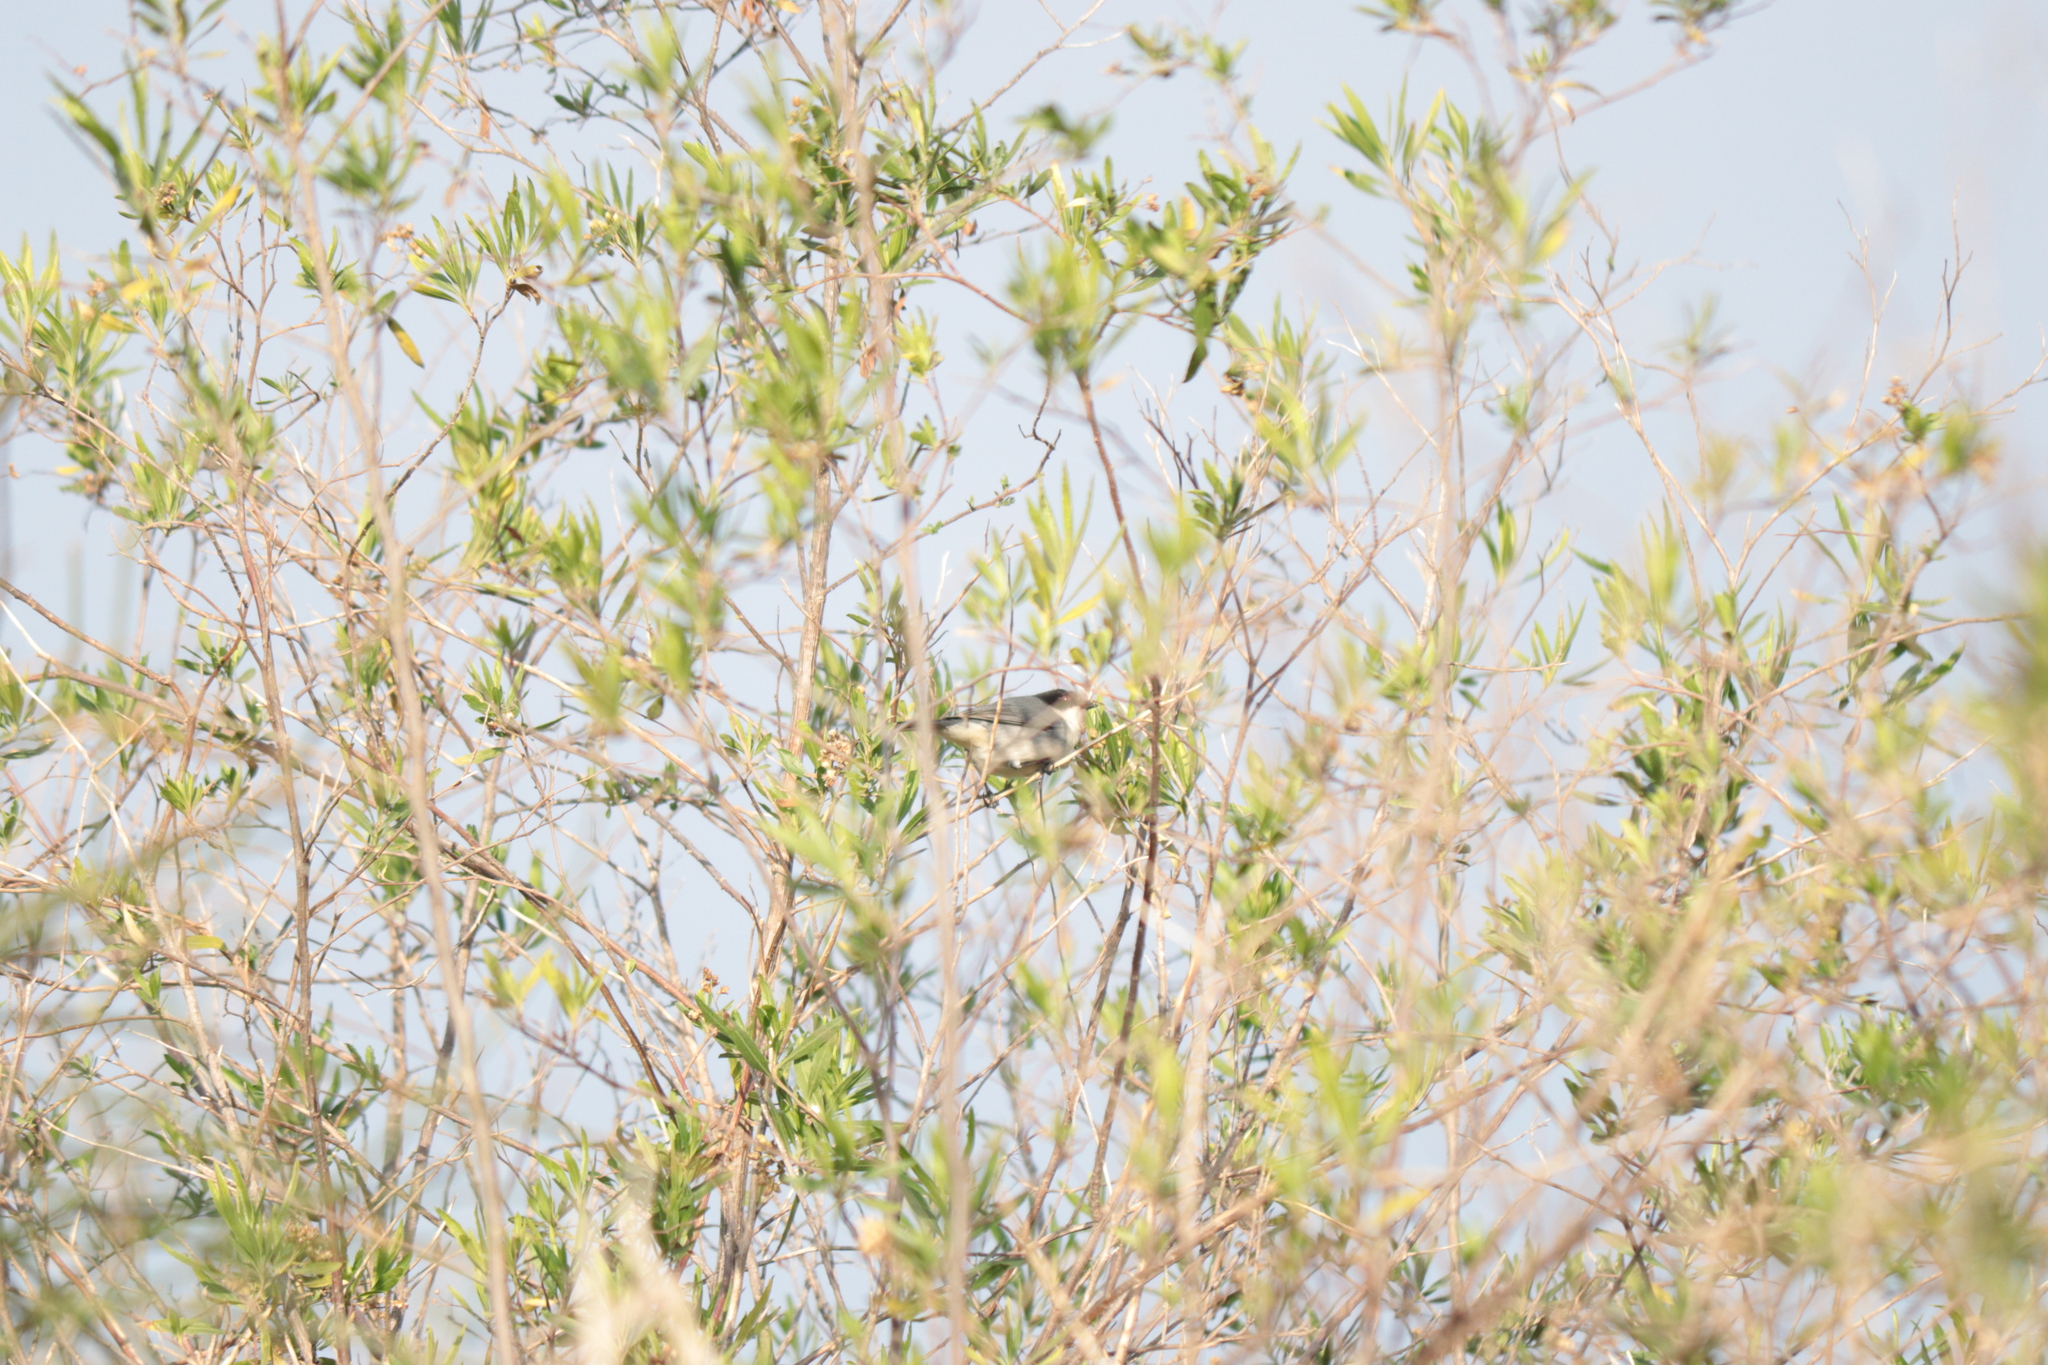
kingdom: Animalia
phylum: Chordata
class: Aves
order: Passeriformes
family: Thraupidae
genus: Microspingus
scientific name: Microspingus melanoleucus
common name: Black-capped warbling-finch
